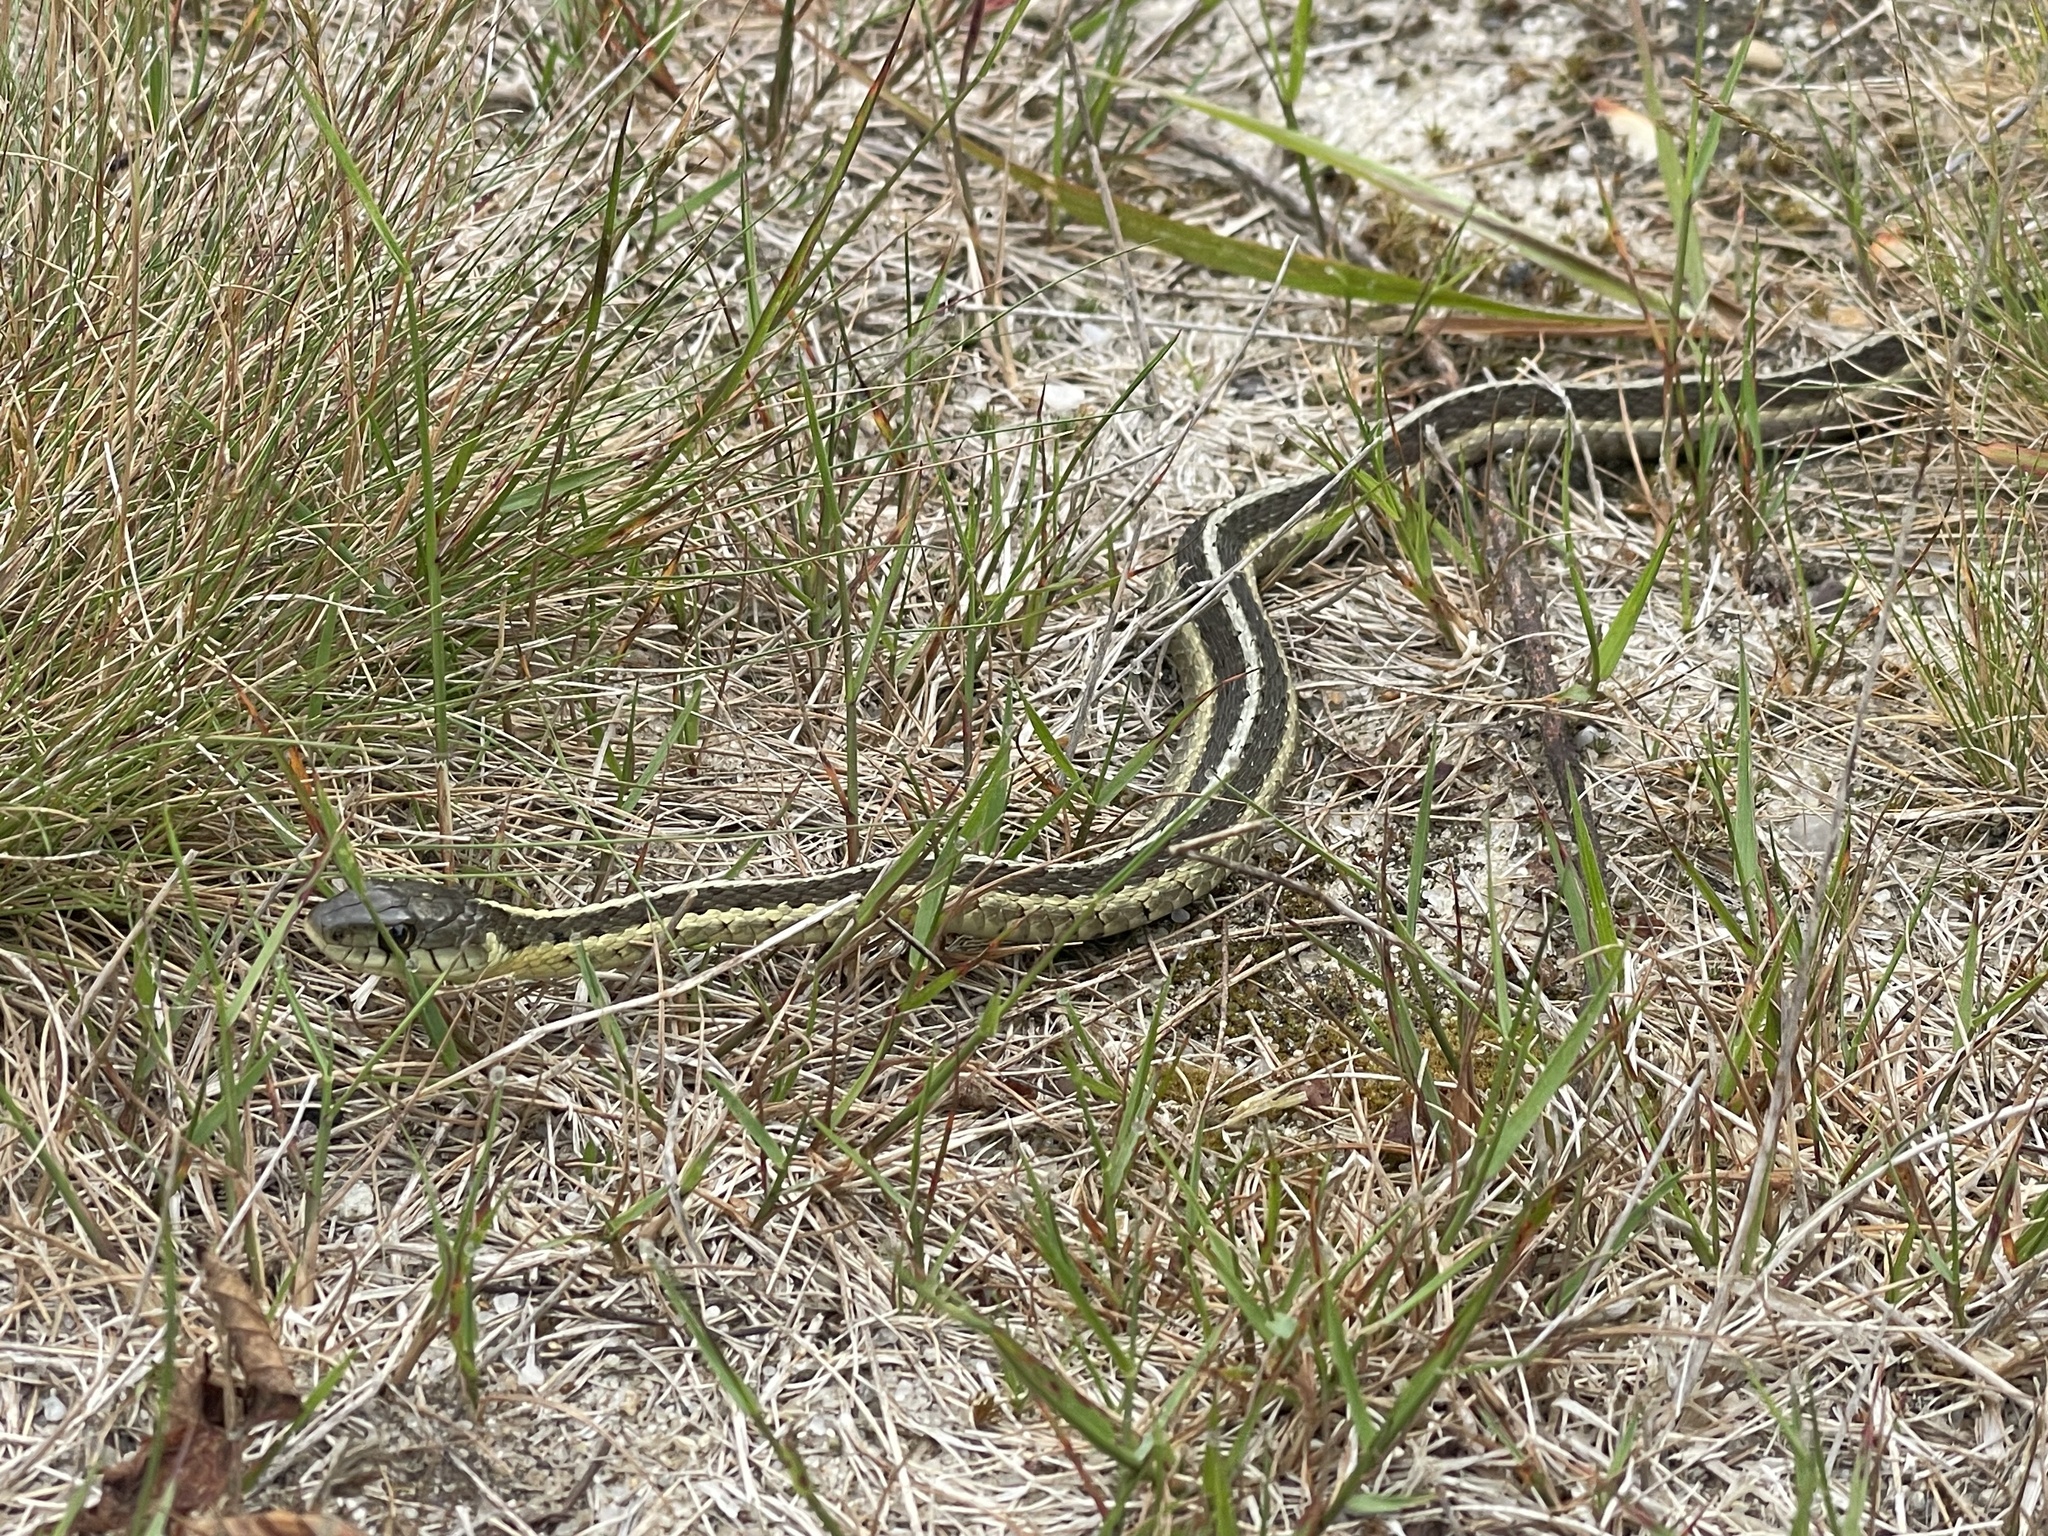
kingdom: Animalia
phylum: Chordata
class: Squamata
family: Colubridae
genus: Thamnophis
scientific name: Thamnophis sirtalis
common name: Common garter snake
